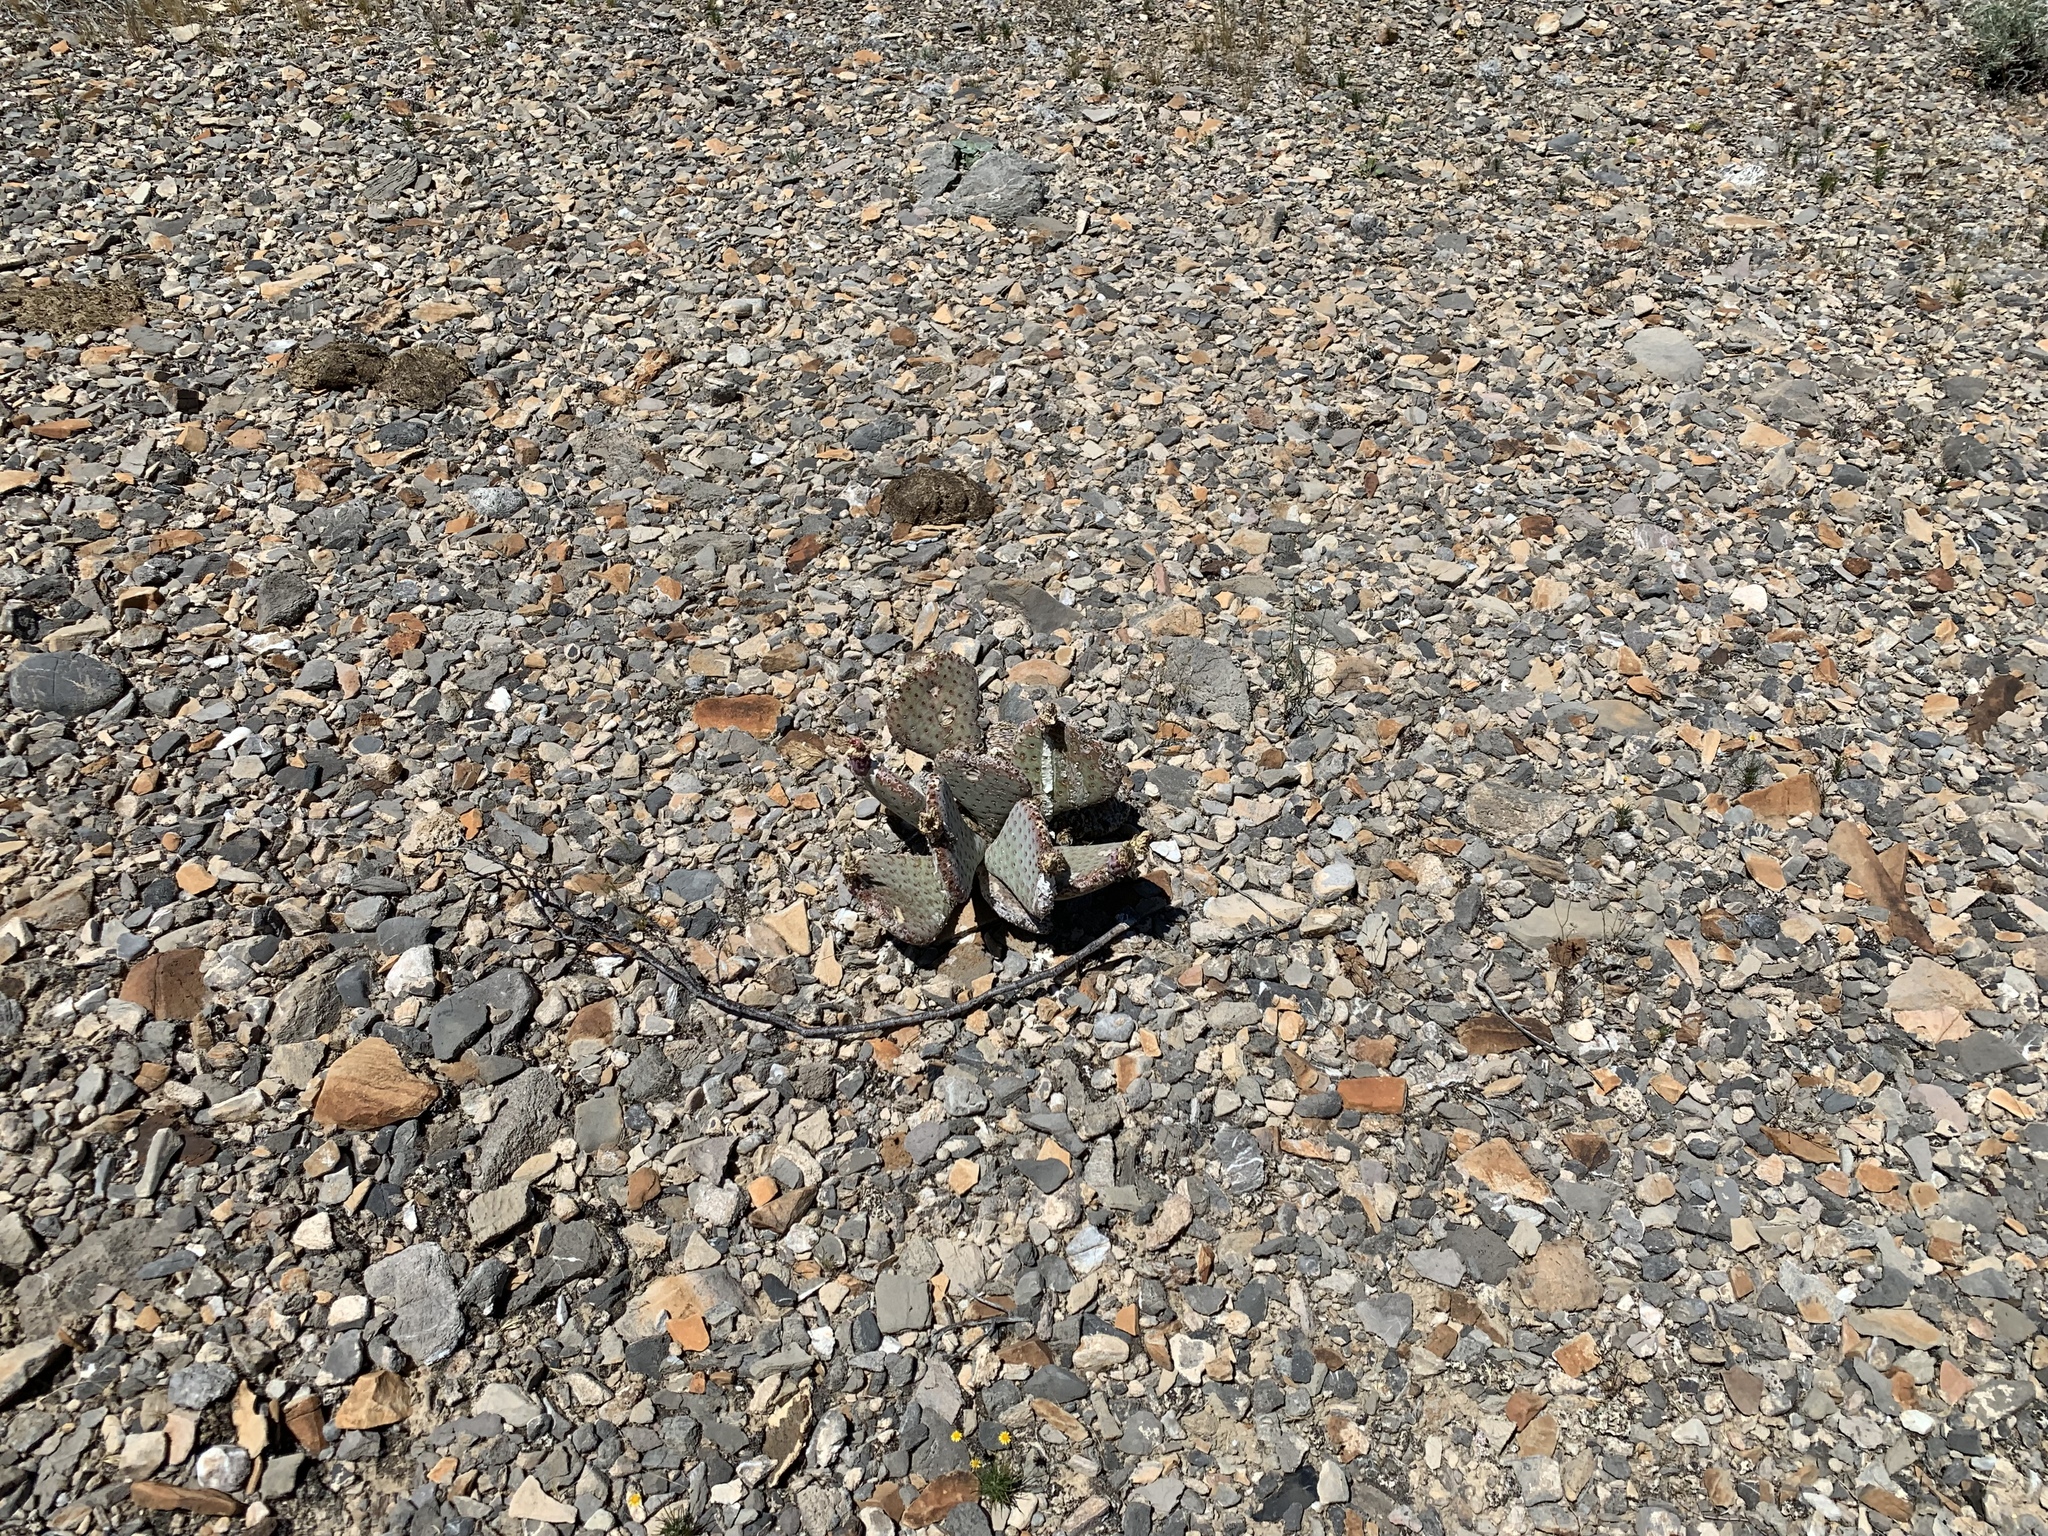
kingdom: Plantae
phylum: Tracheophyta
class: Magnoliopsida
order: Caryophyllales
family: Cactaceae
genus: Opuntia
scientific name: Opuntia basilaris
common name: Beavertail prickly-pear
